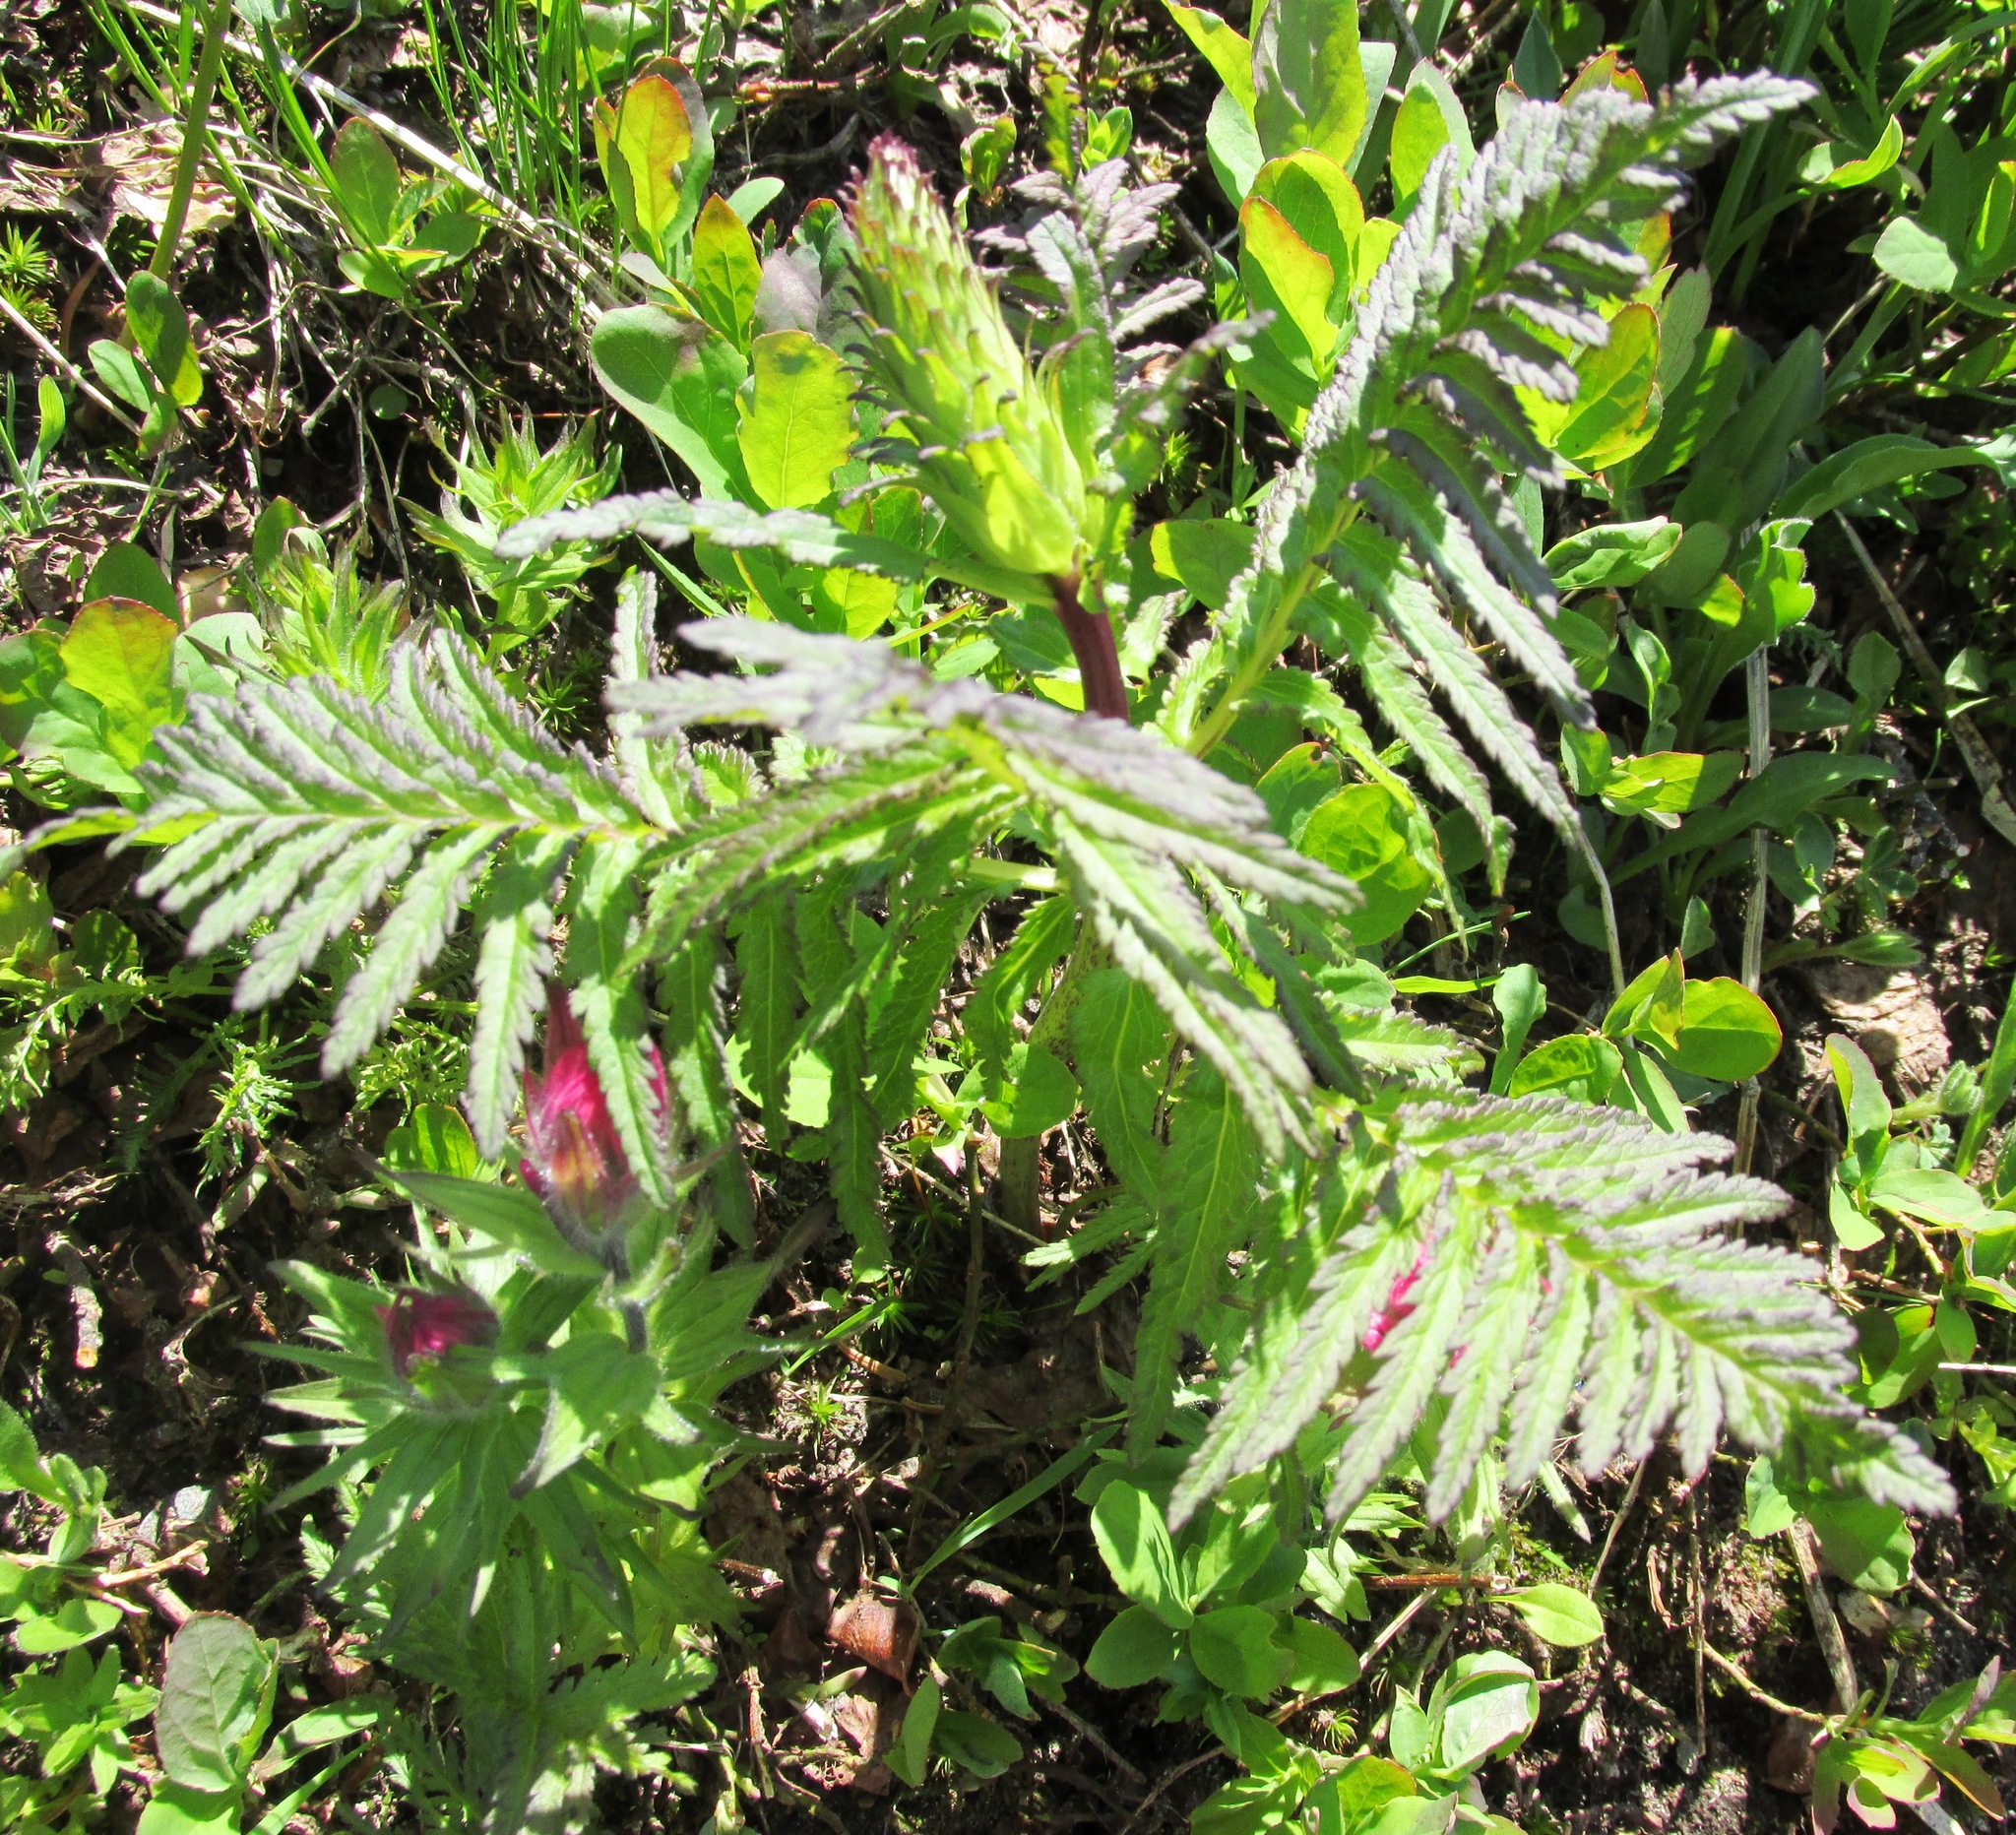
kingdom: Plantae
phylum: Tracheophyta
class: Magnoliopsida
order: Lamiales
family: Orobanchaceae
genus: Pedicularis
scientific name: Pedicularis bracteosa
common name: Bracted lousewort
